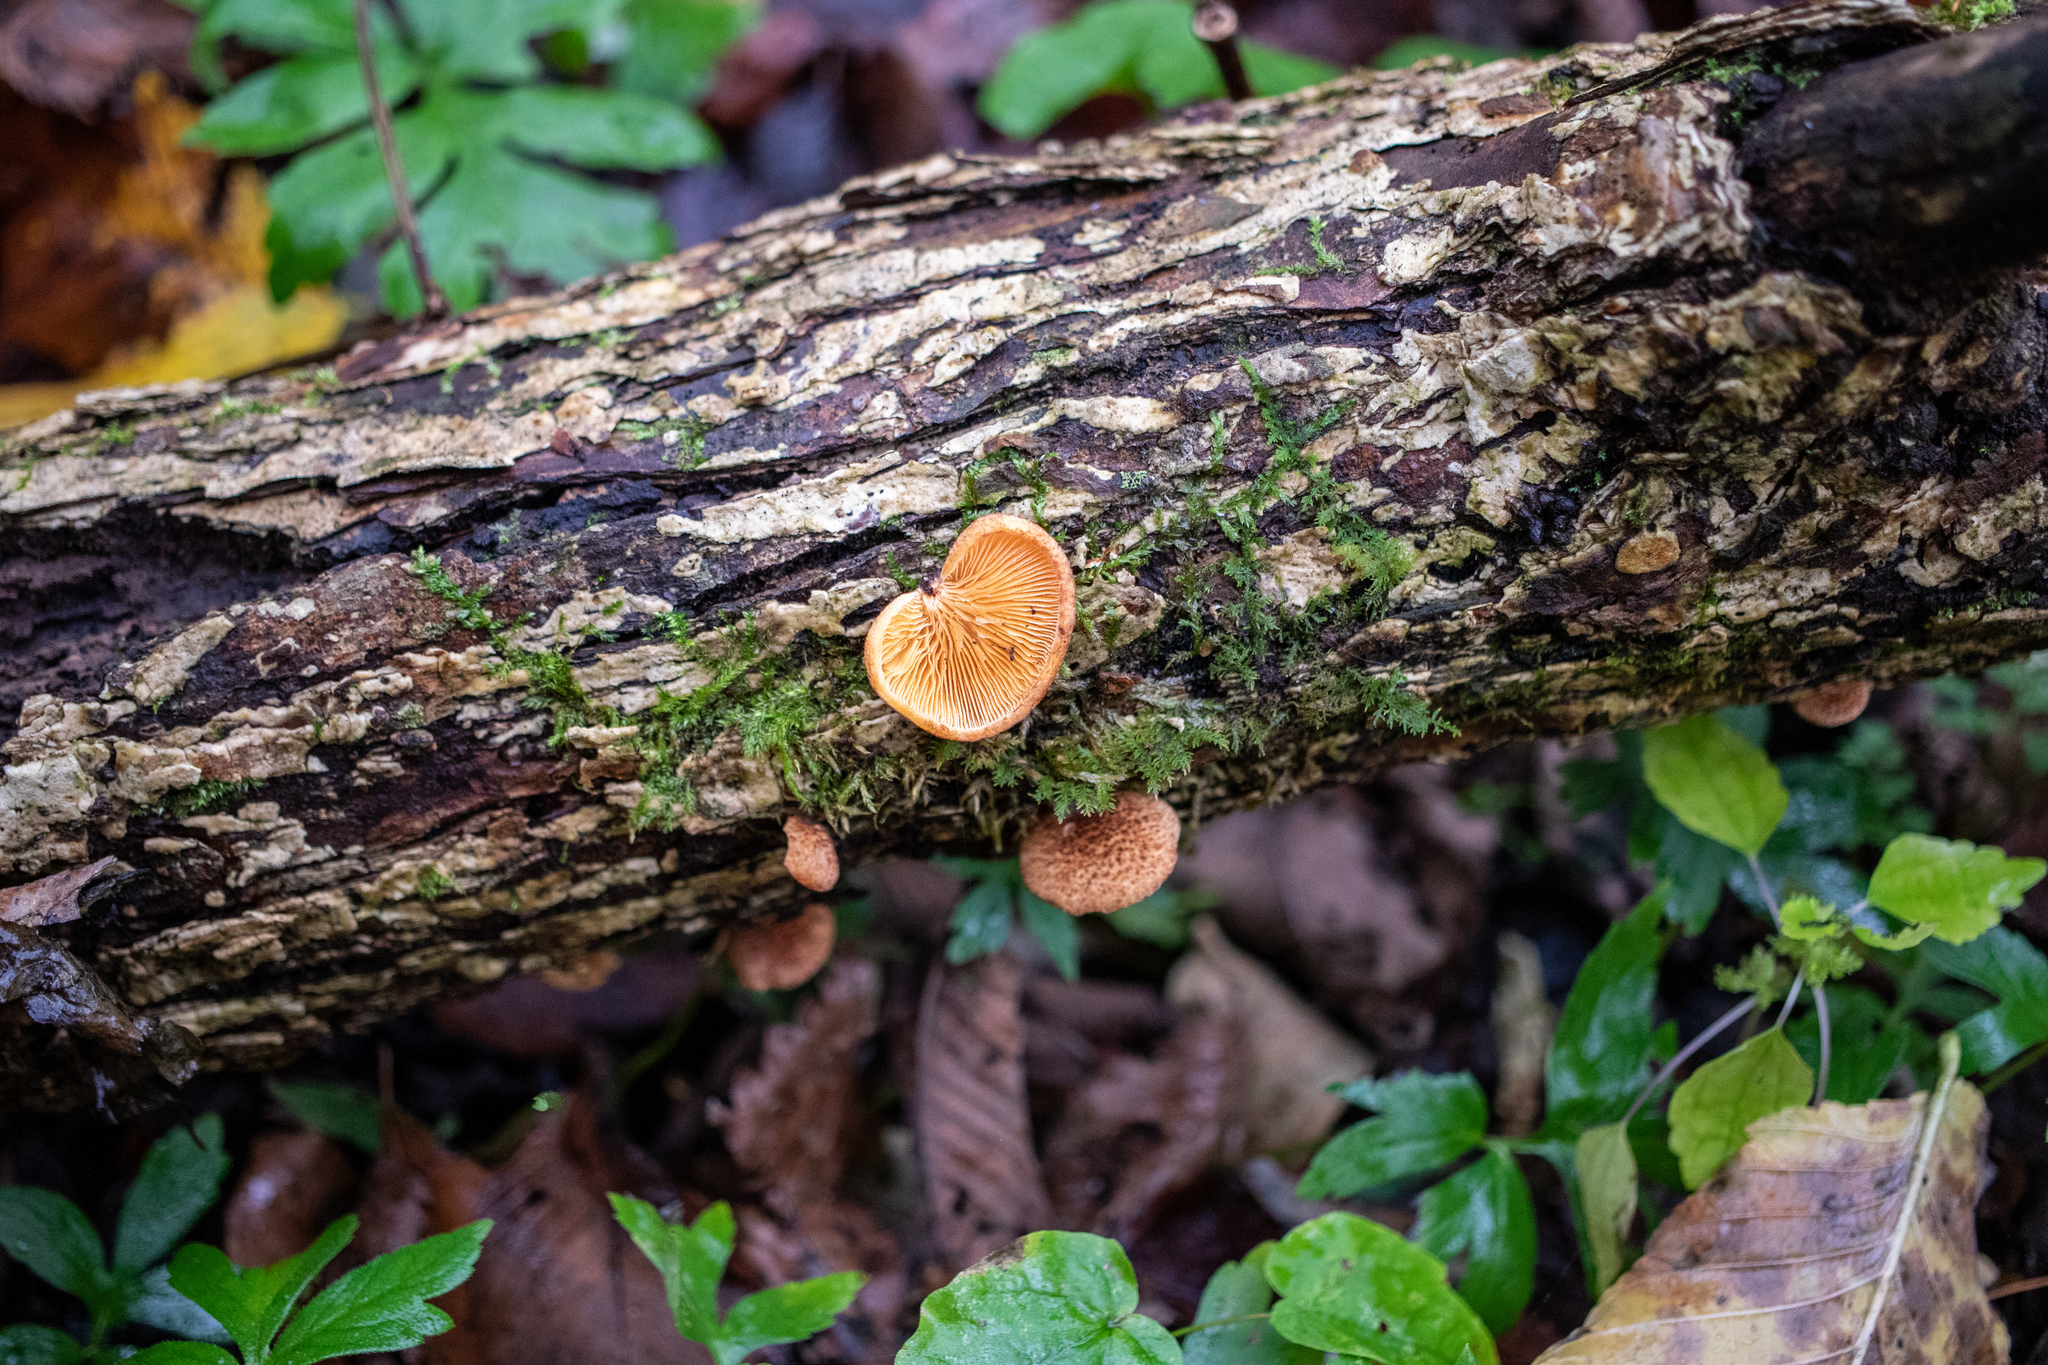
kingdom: Fungi
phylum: Basidiomycota
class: Agaricomycetes
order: Agaricales
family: Crepidotaceae
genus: Crepidotus
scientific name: Crepidotus crocophyllus
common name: Saffron oysterling
